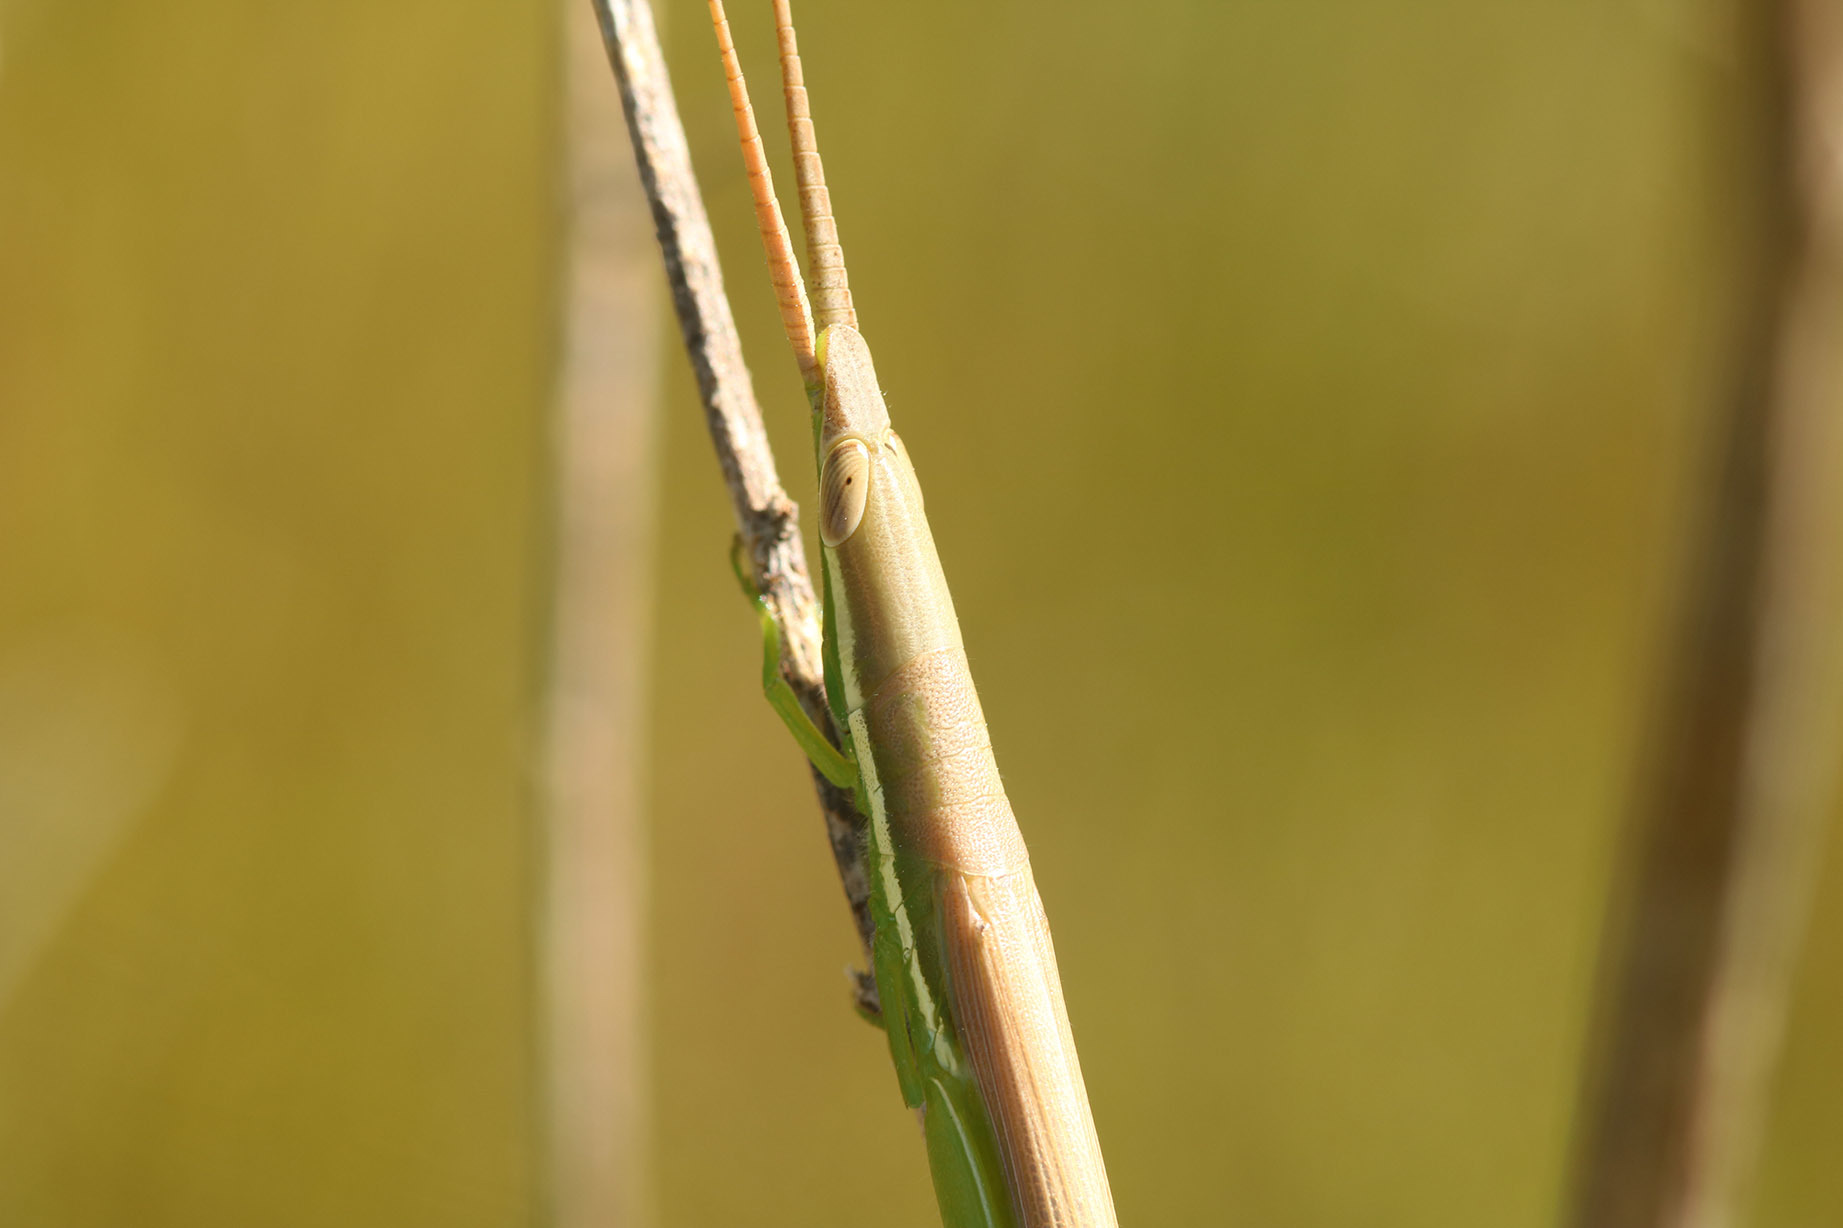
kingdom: Animalia
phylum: Arthropoda
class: Insecta
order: Orthoptera
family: Acrididae
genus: Leptysma
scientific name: Leptysma argentina
